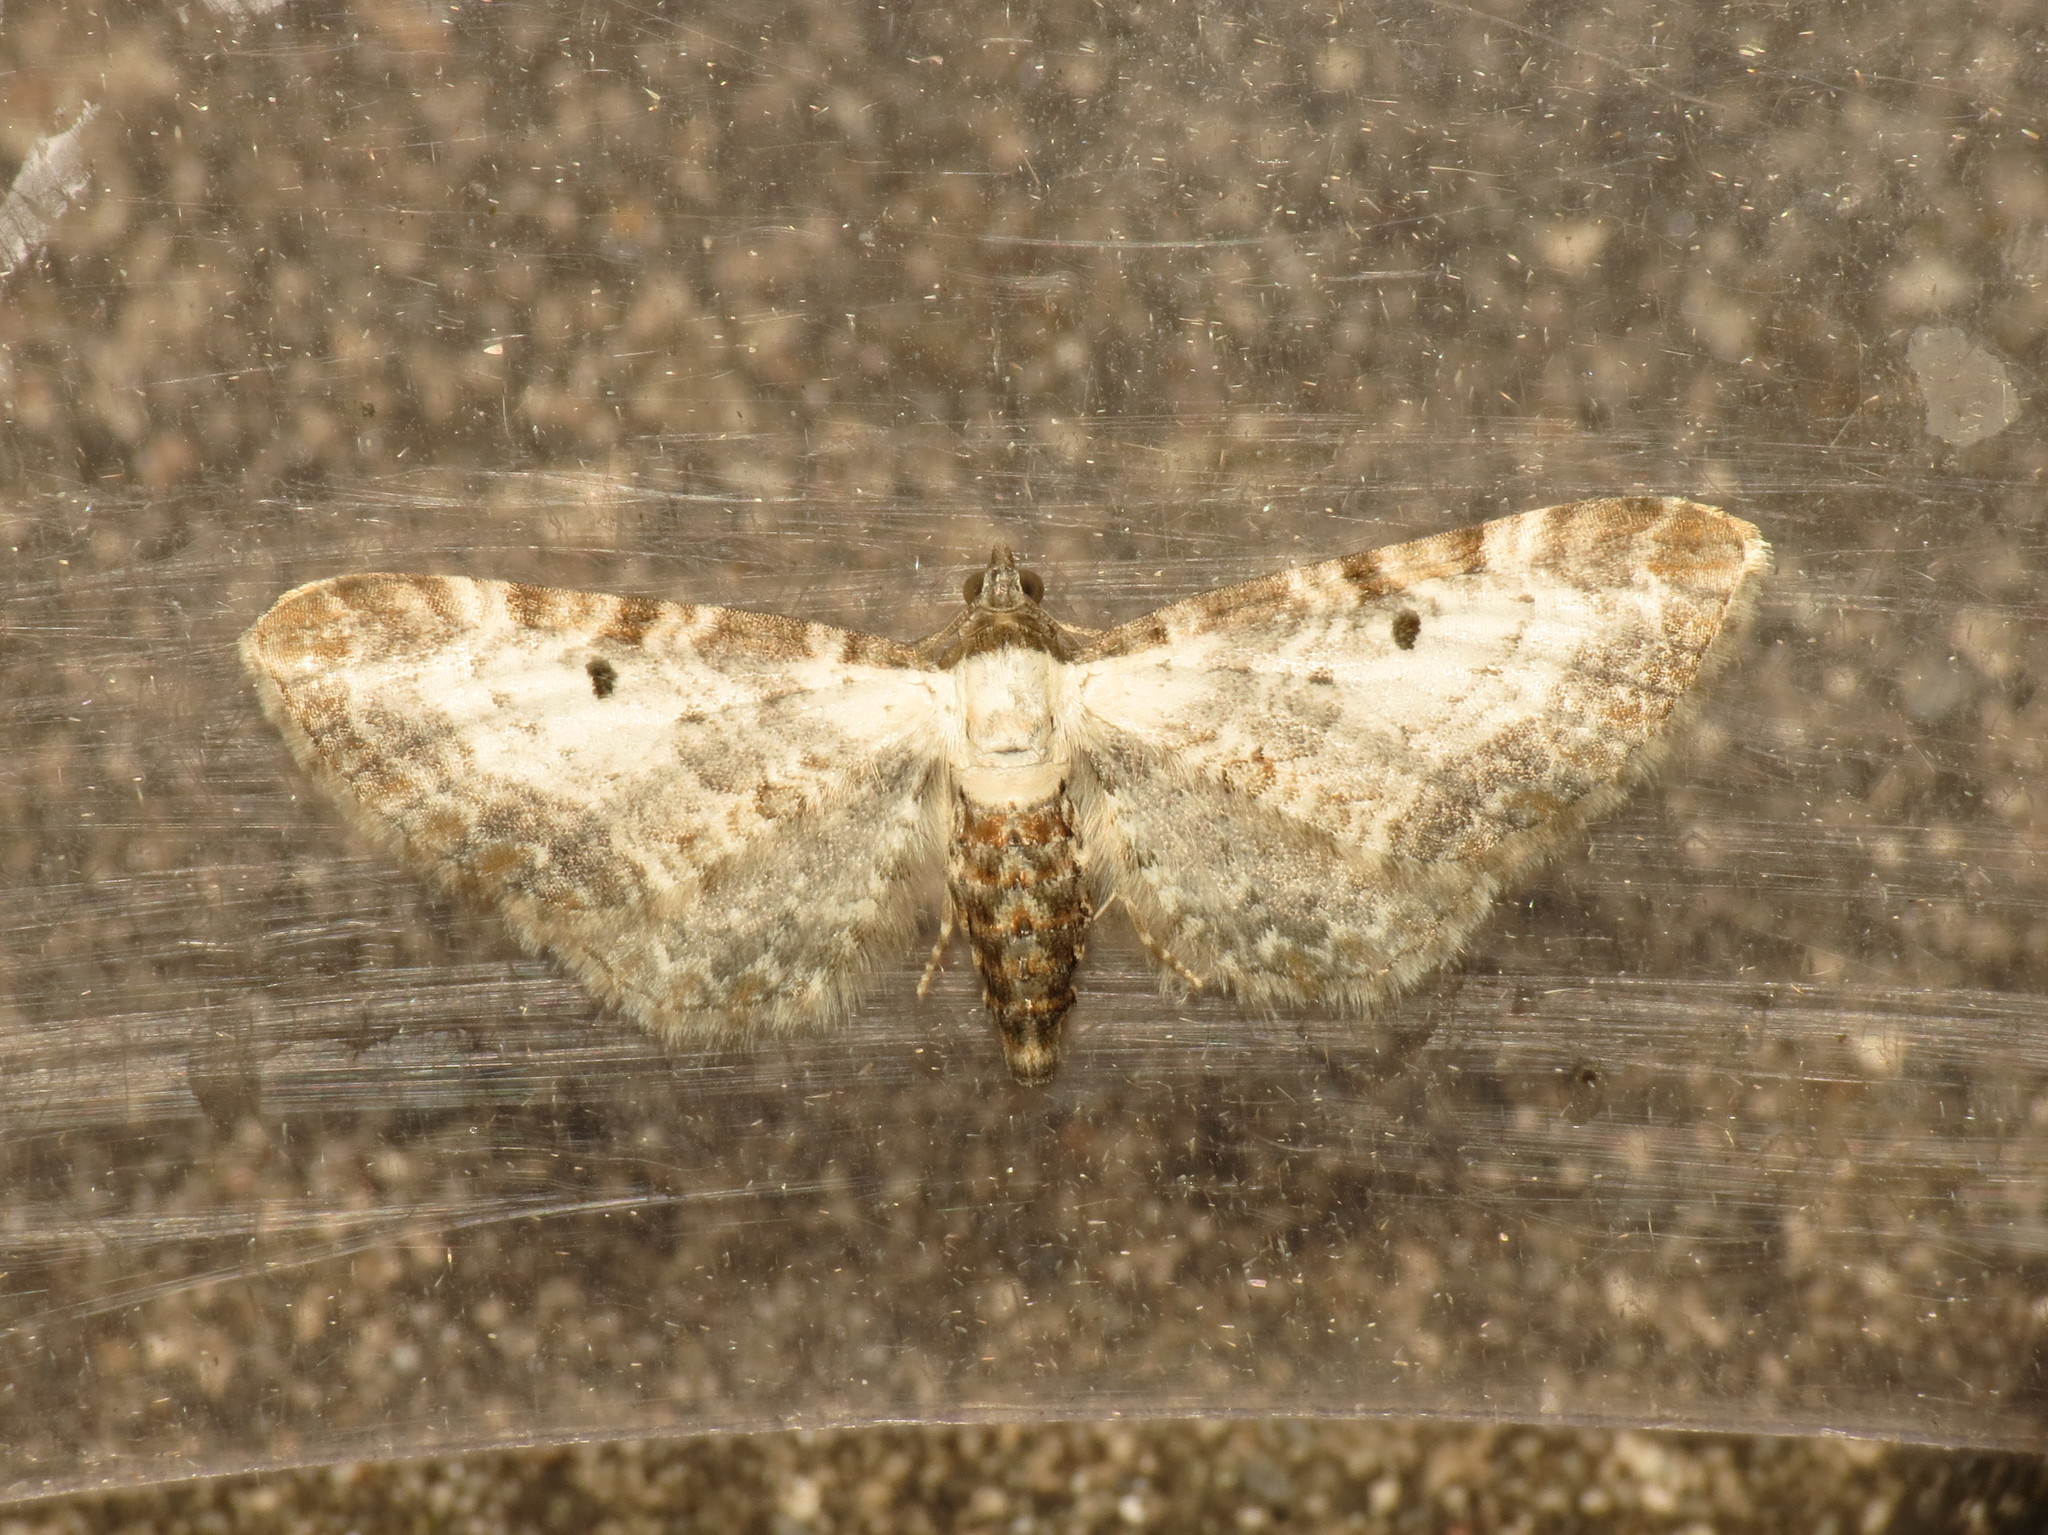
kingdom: Animalia
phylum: Arthropoda
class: Insecta
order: Lepidoptera
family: Geometridae
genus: Eupithecia
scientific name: Eupithecia succenturiata
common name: Bordered pug
